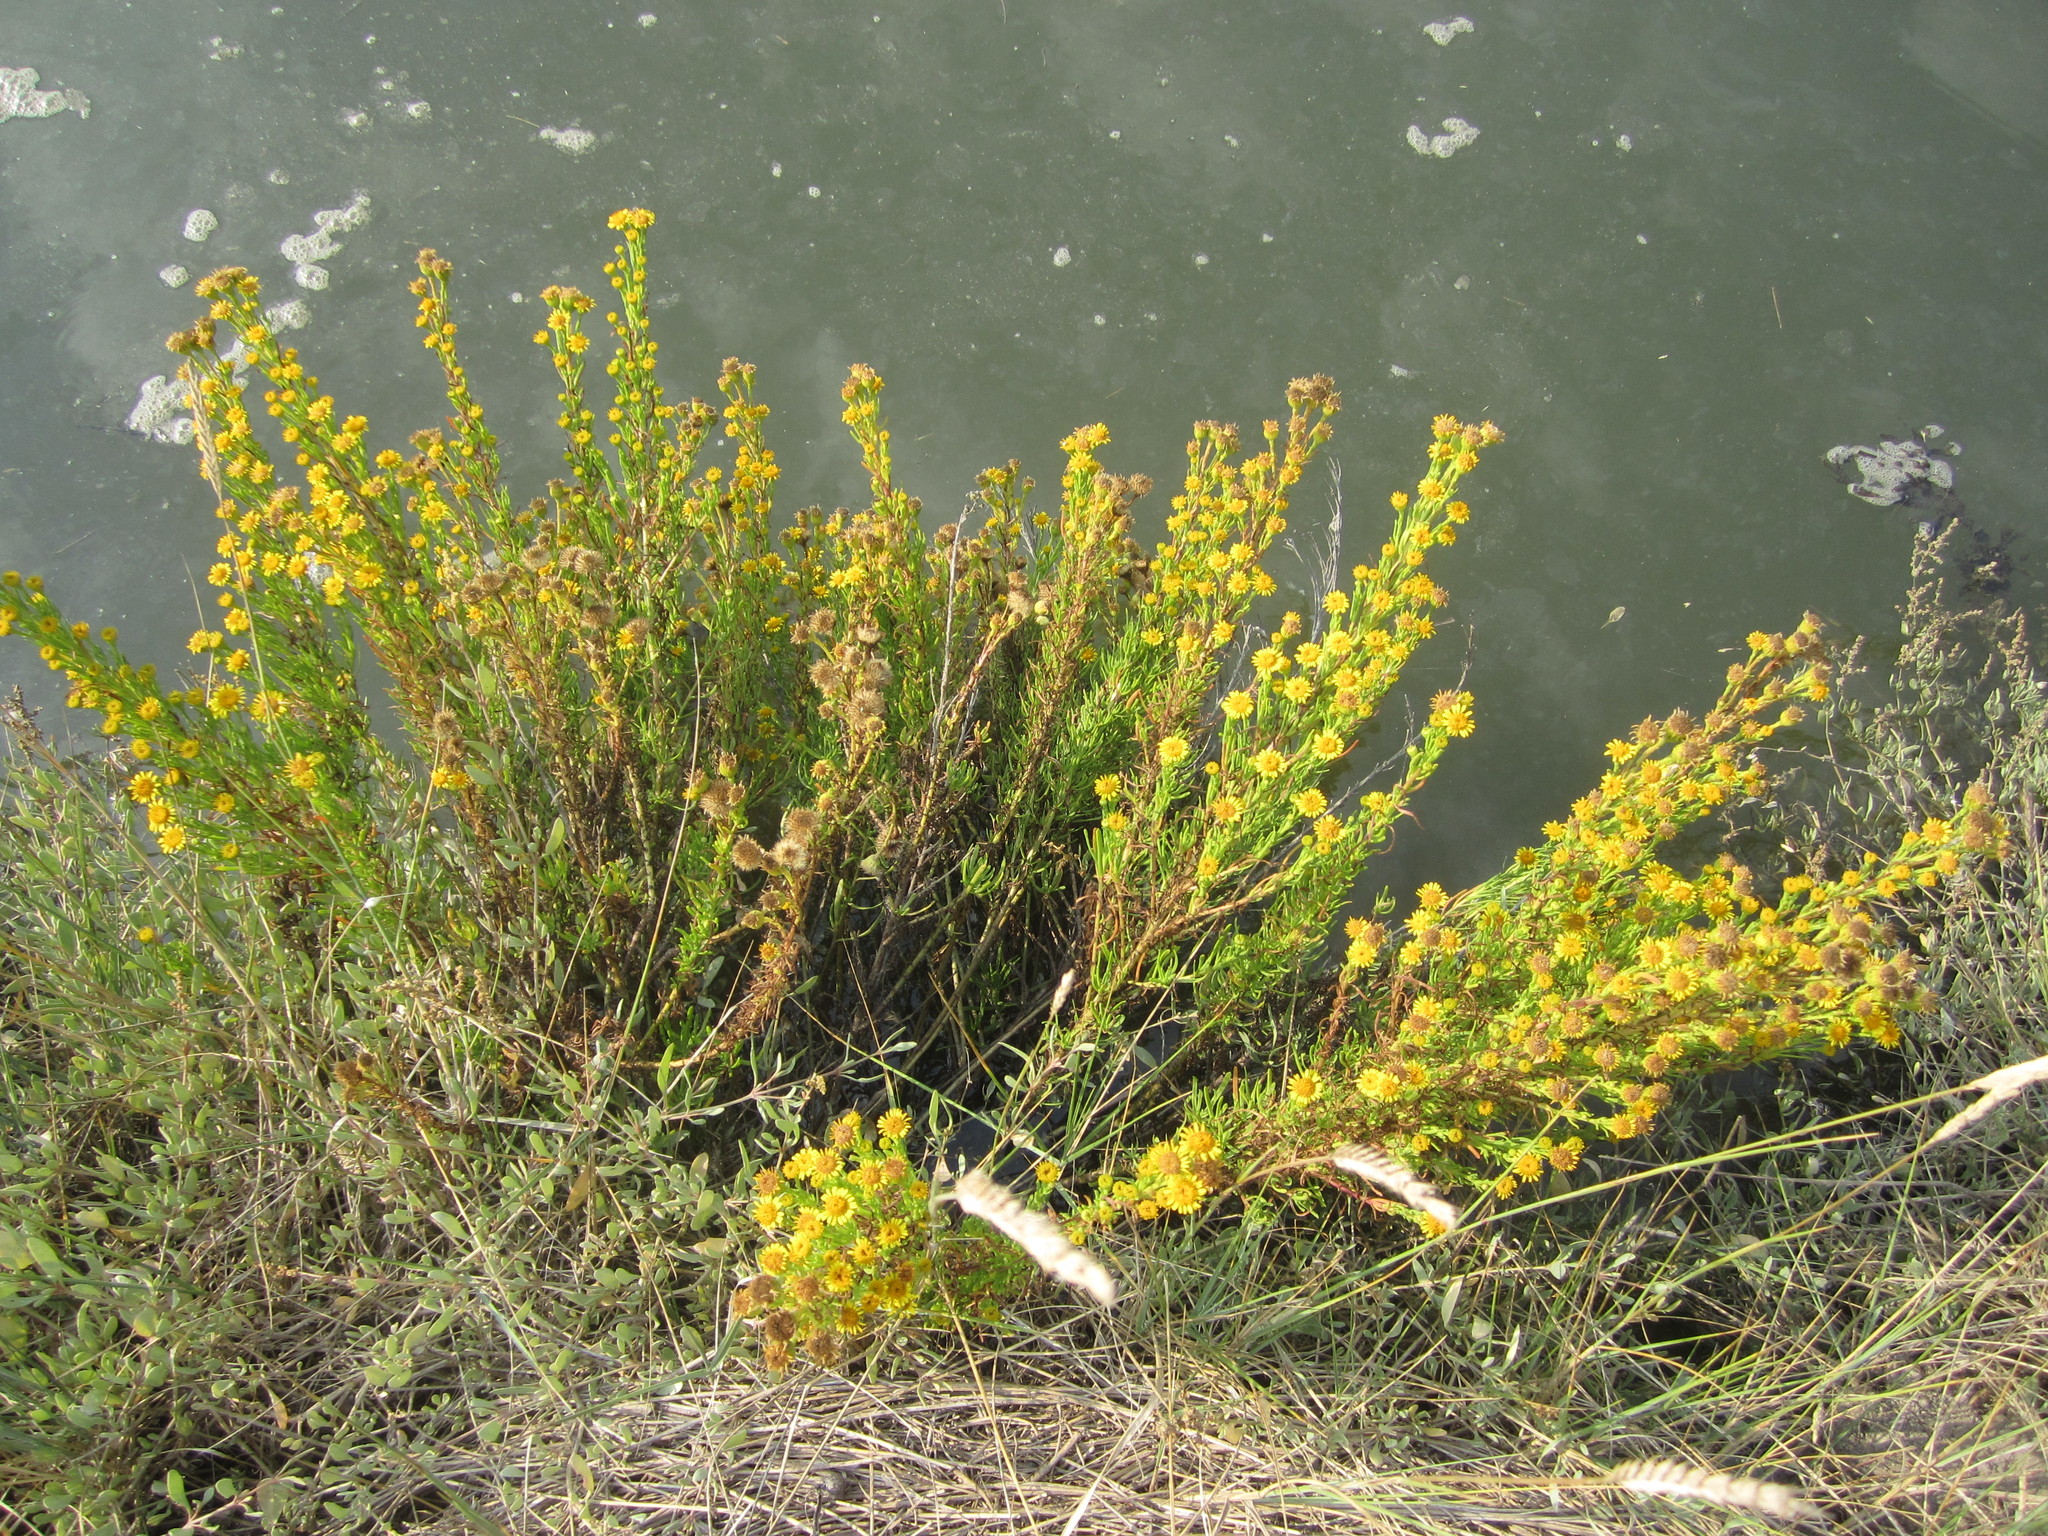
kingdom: Plantae
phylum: Tracheophyta
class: Magnoliopsida
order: Asterales
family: Asteraceae
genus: Limbarda
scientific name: Limbarda crithmoides
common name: Golden samphire
